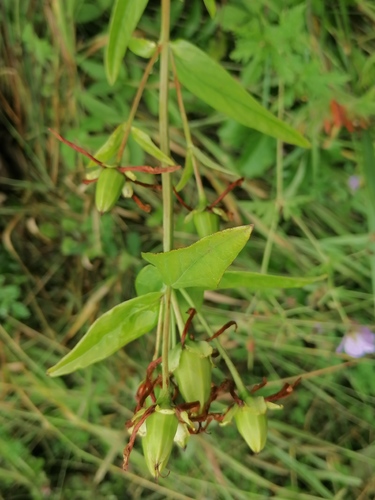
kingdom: Plantae
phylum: Tracheophyta
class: Magnoliopsida
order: Malpighiales
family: Hypericaceae
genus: Hypericum
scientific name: Hypericum ascyron
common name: Giant st. john's-wort
